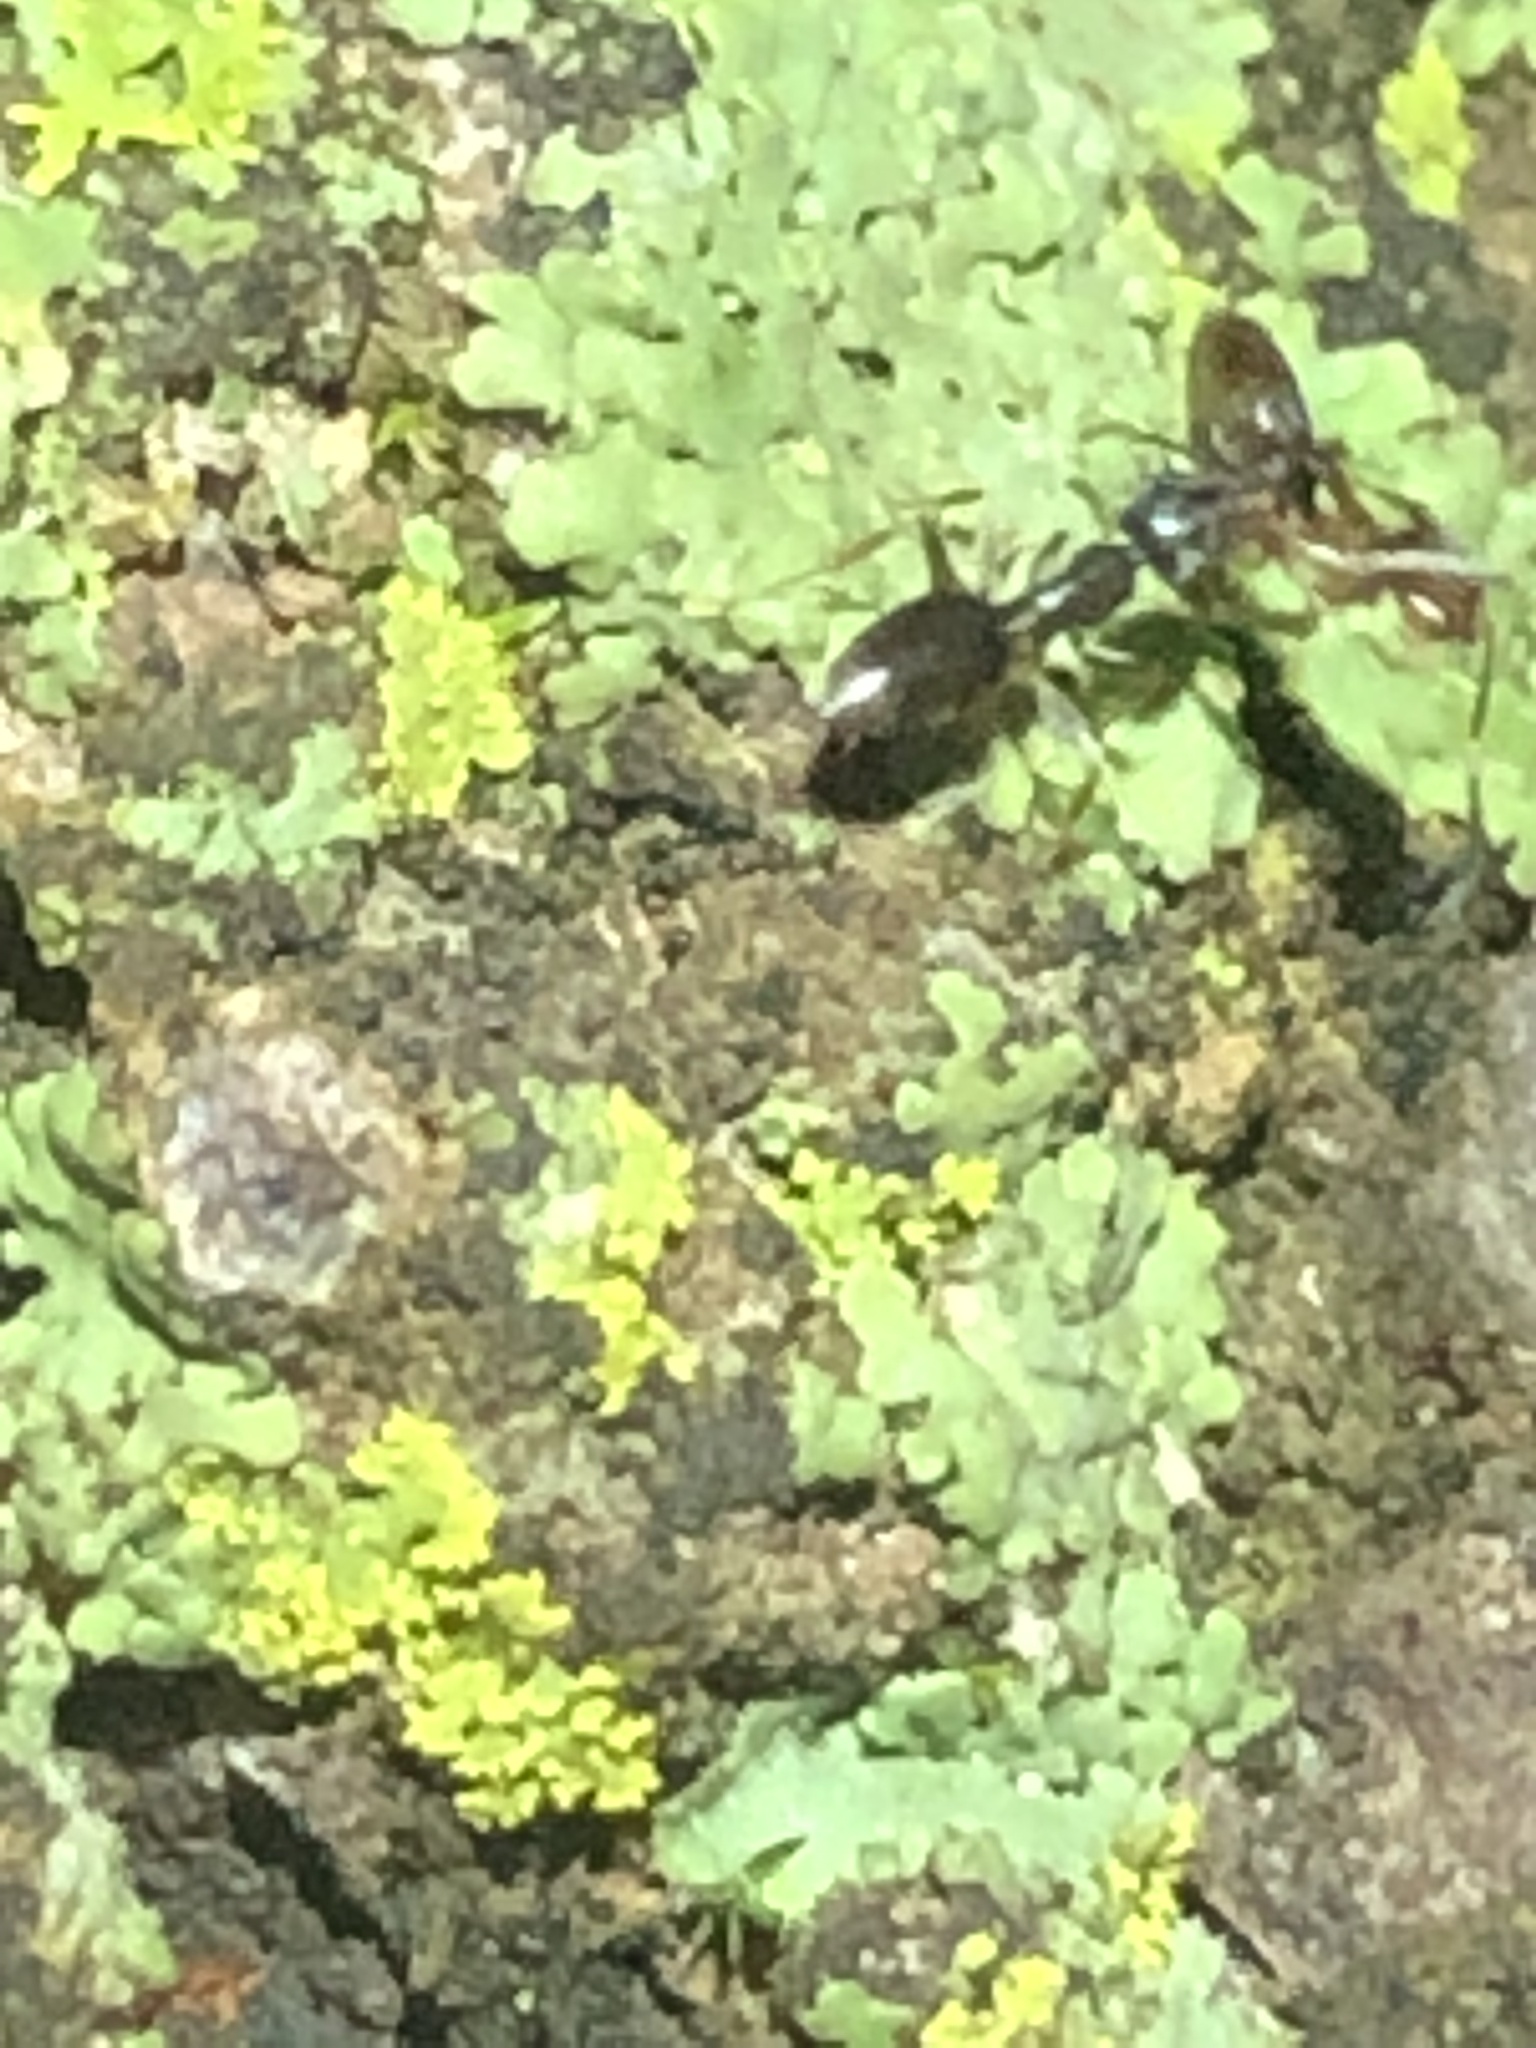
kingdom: Animalia
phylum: Arthropoda
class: Insecta
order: Hymenoptera
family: Formicidae
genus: Tapinoma
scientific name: Tapinoma sessile
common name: Odorous house ant
